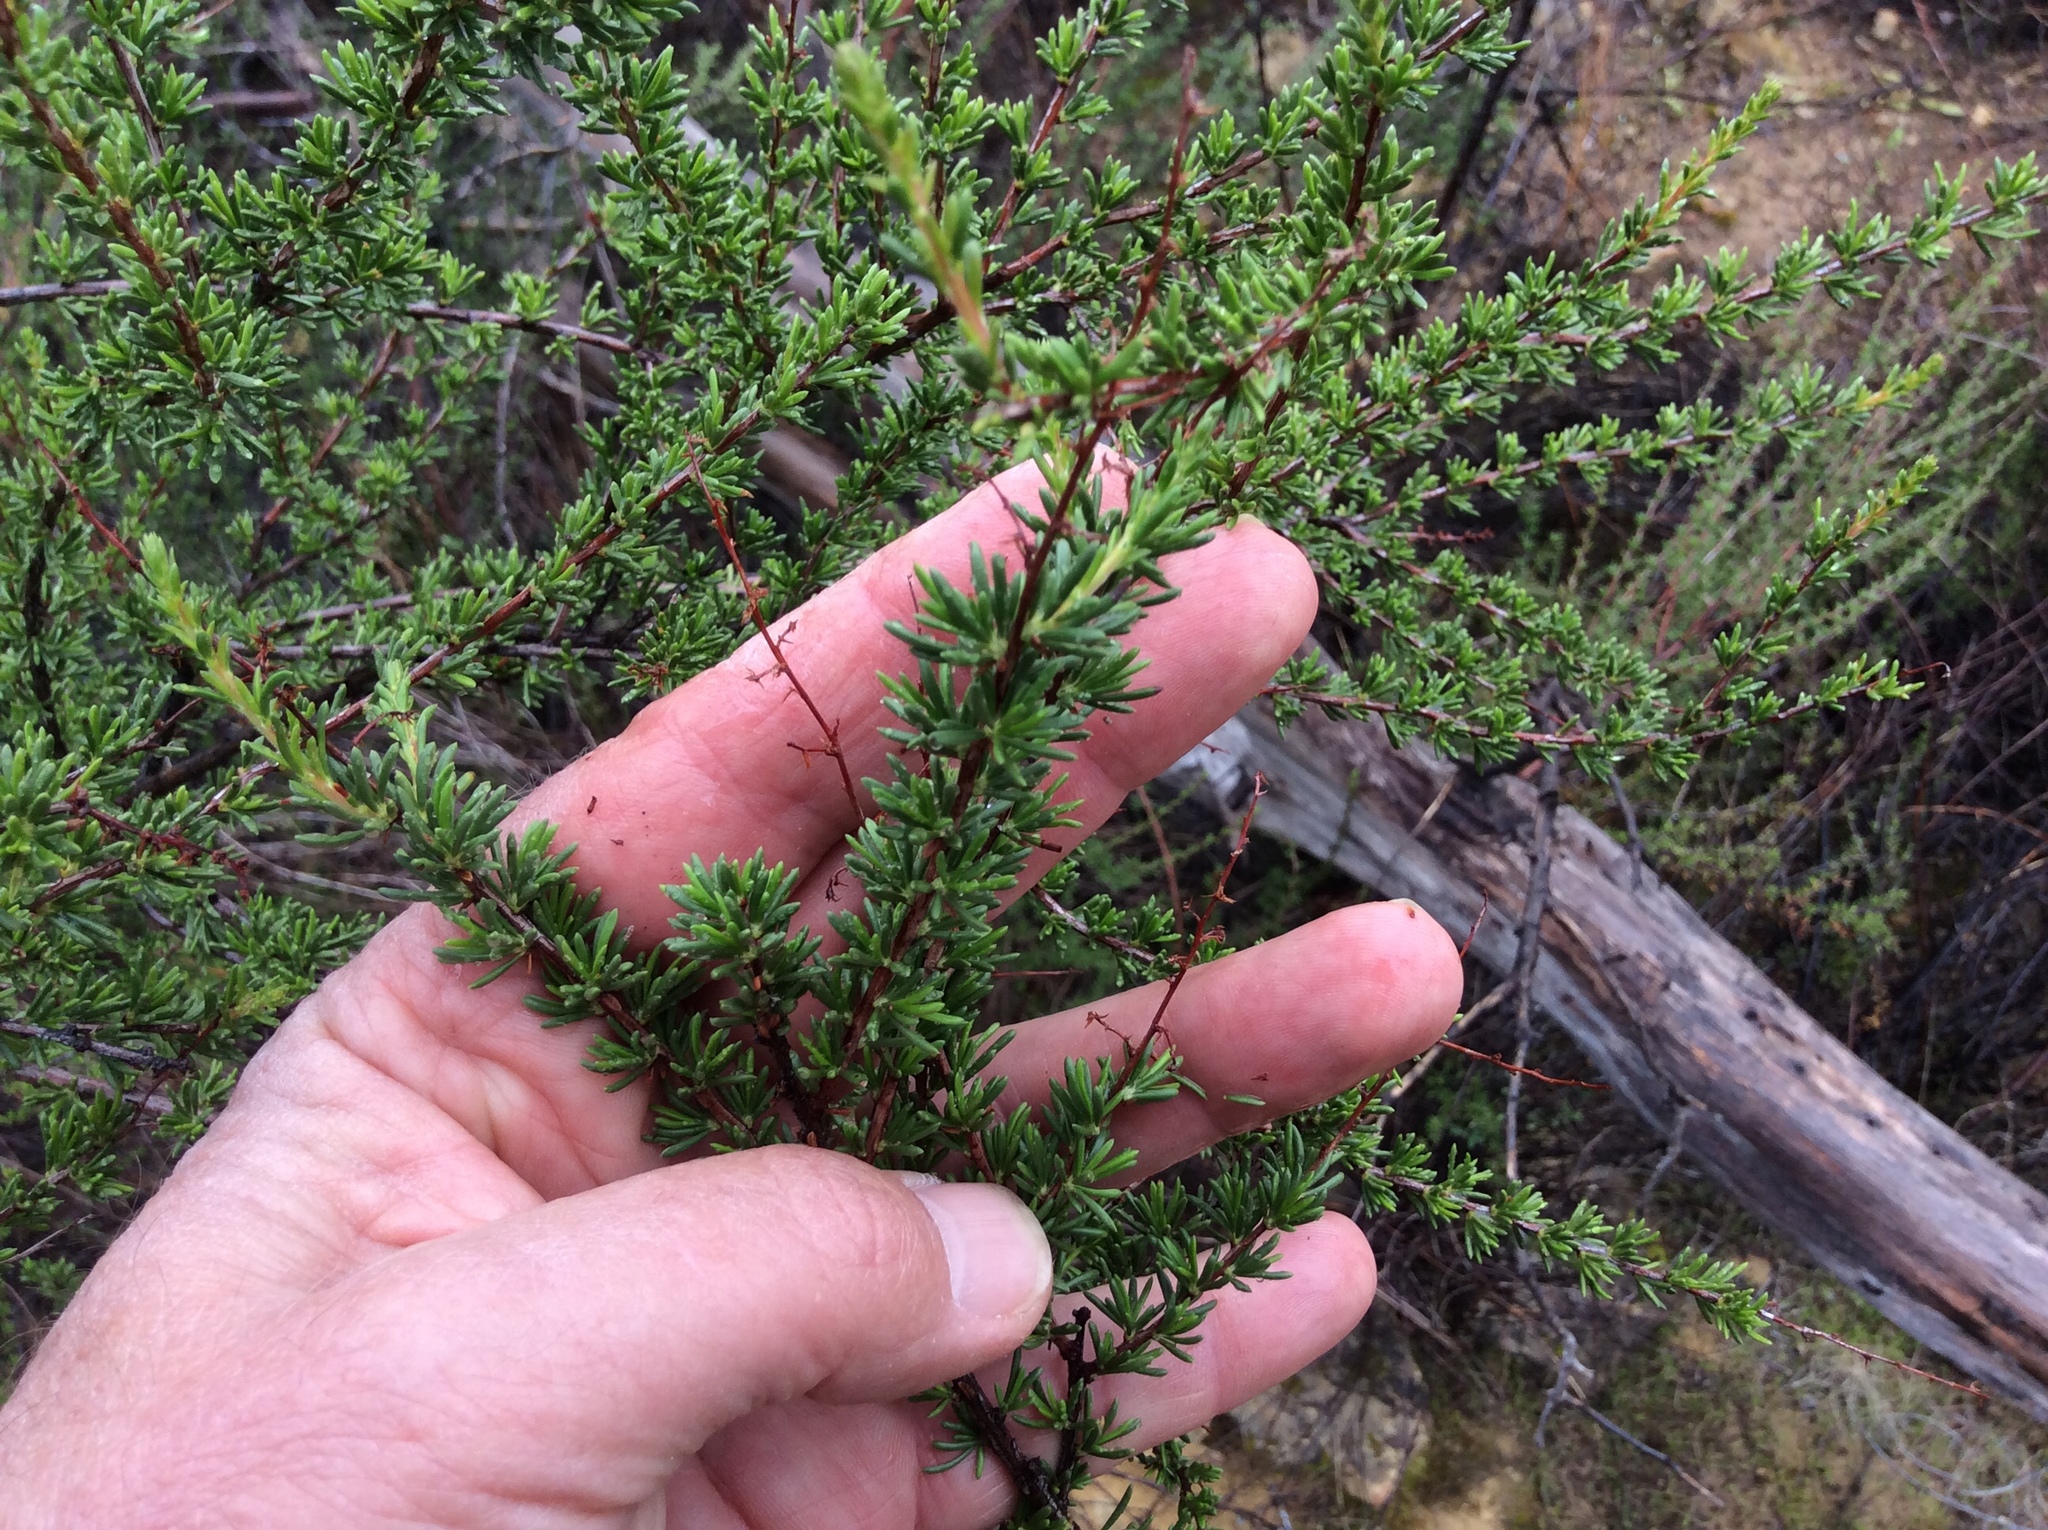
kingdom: Plantae
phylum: Tracheophyta
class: Magnoliopsida
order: Rosales
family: Rosaceae
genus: Adenostoma
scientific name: Adenostoma fasciculatum
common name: Chamise
